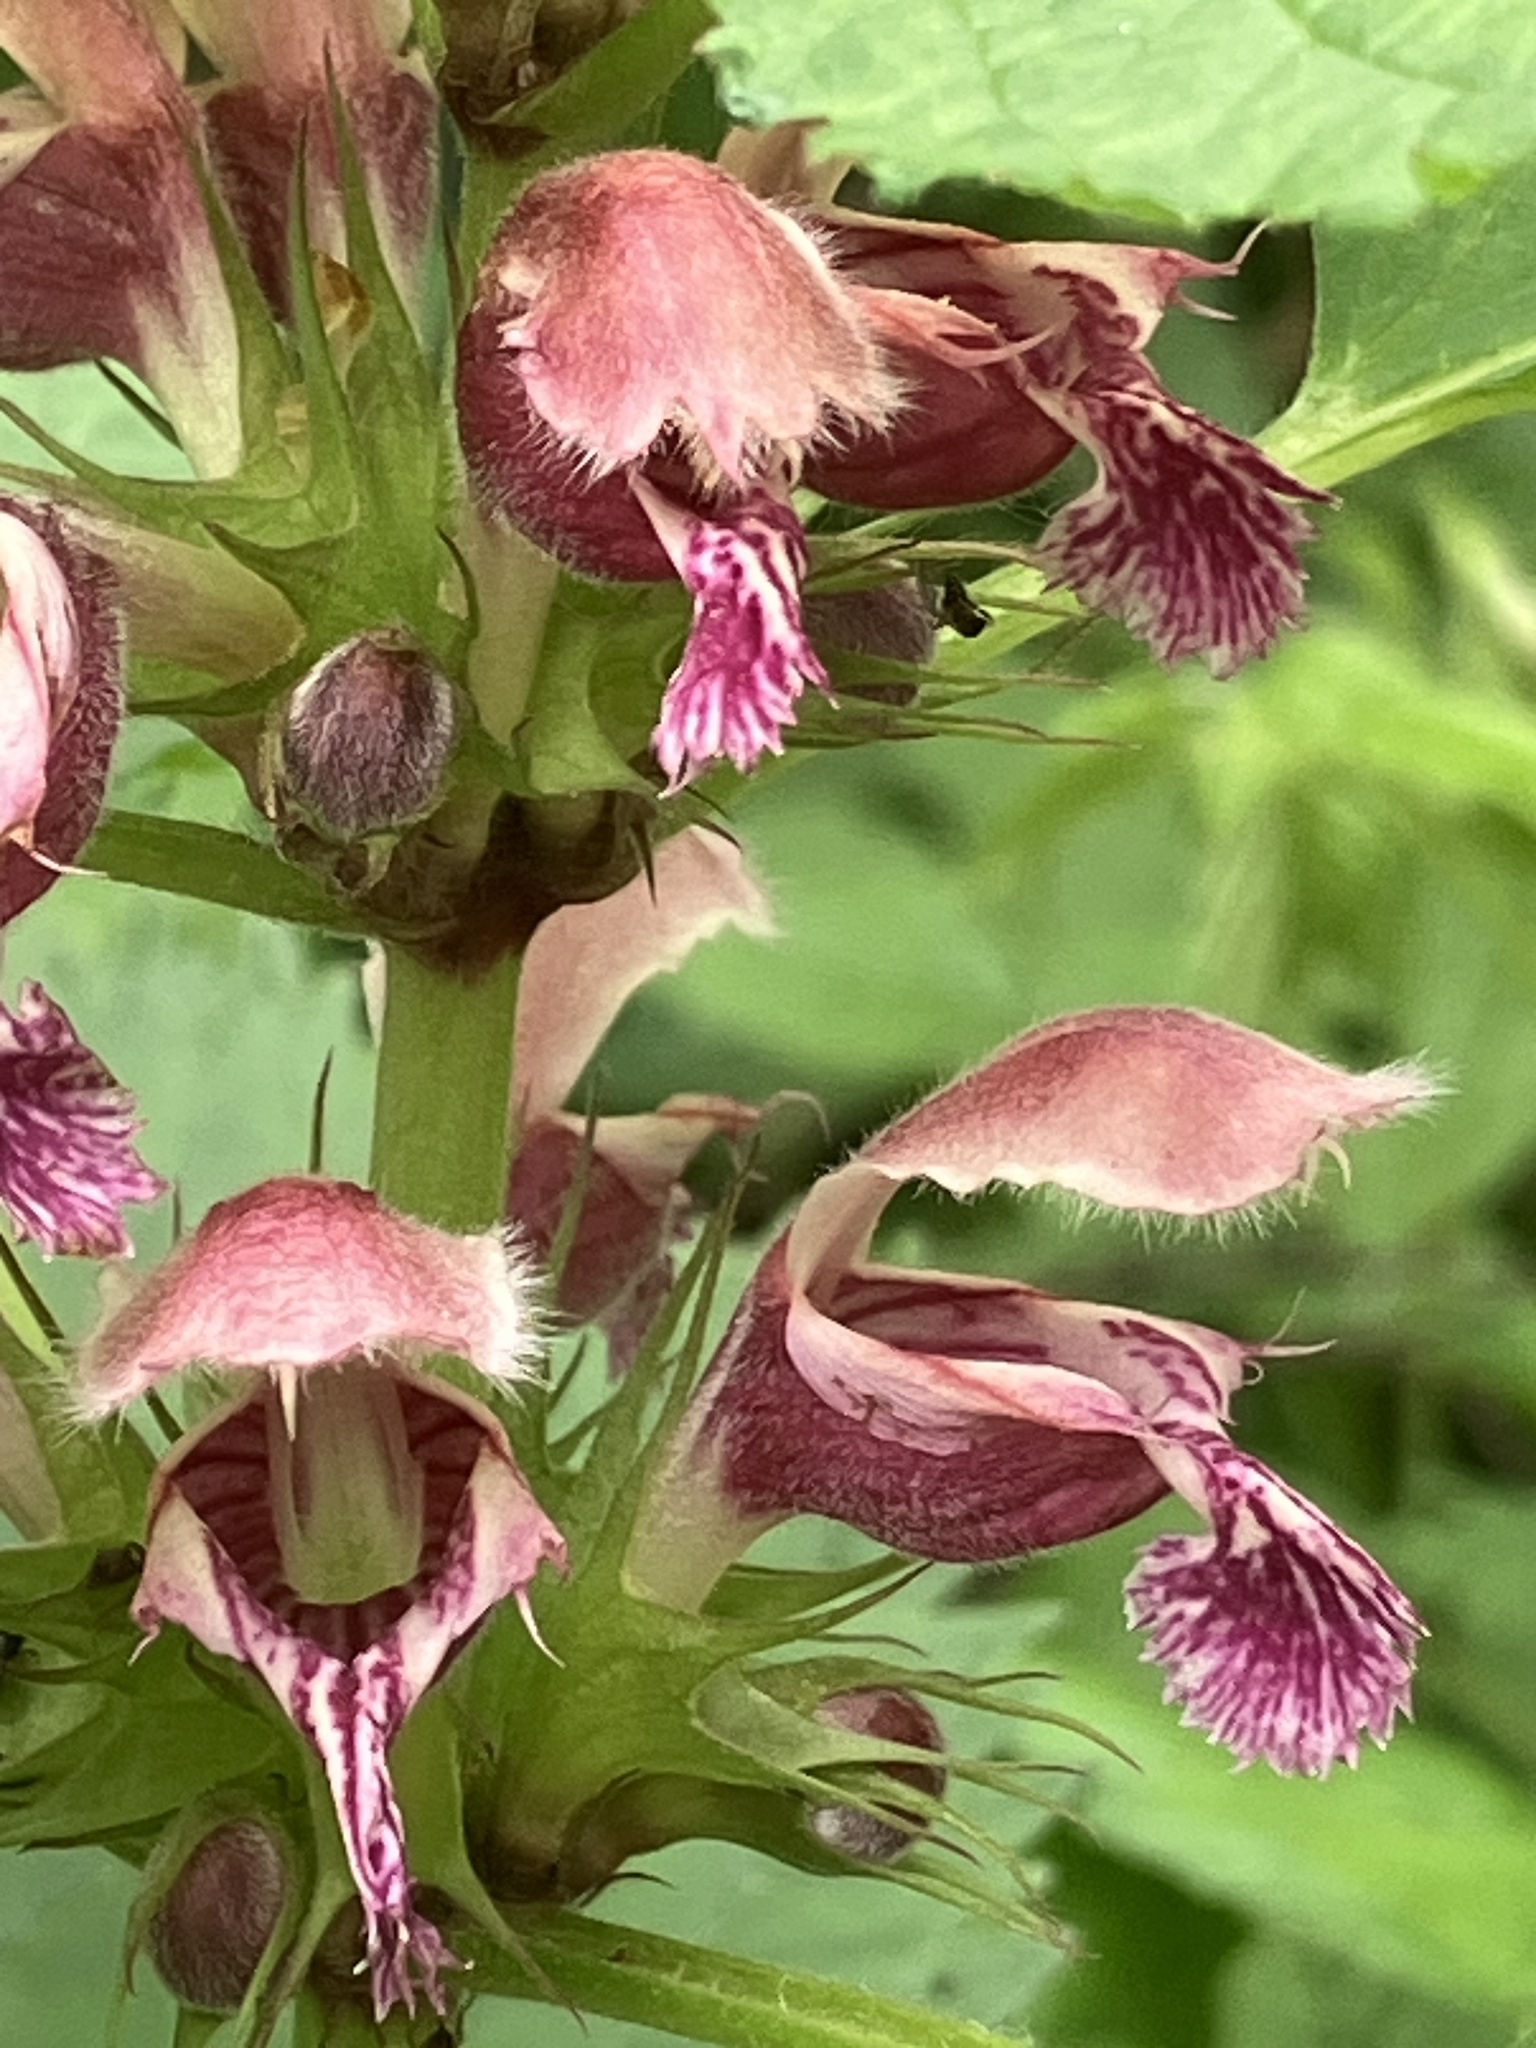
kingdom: Plantae
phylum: Tracheophyta
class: Magnoliopsida
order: Lamiales
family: Lamiaceae
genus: Lamium
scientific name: Lamium orvala
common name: Balm-leaved archangel
